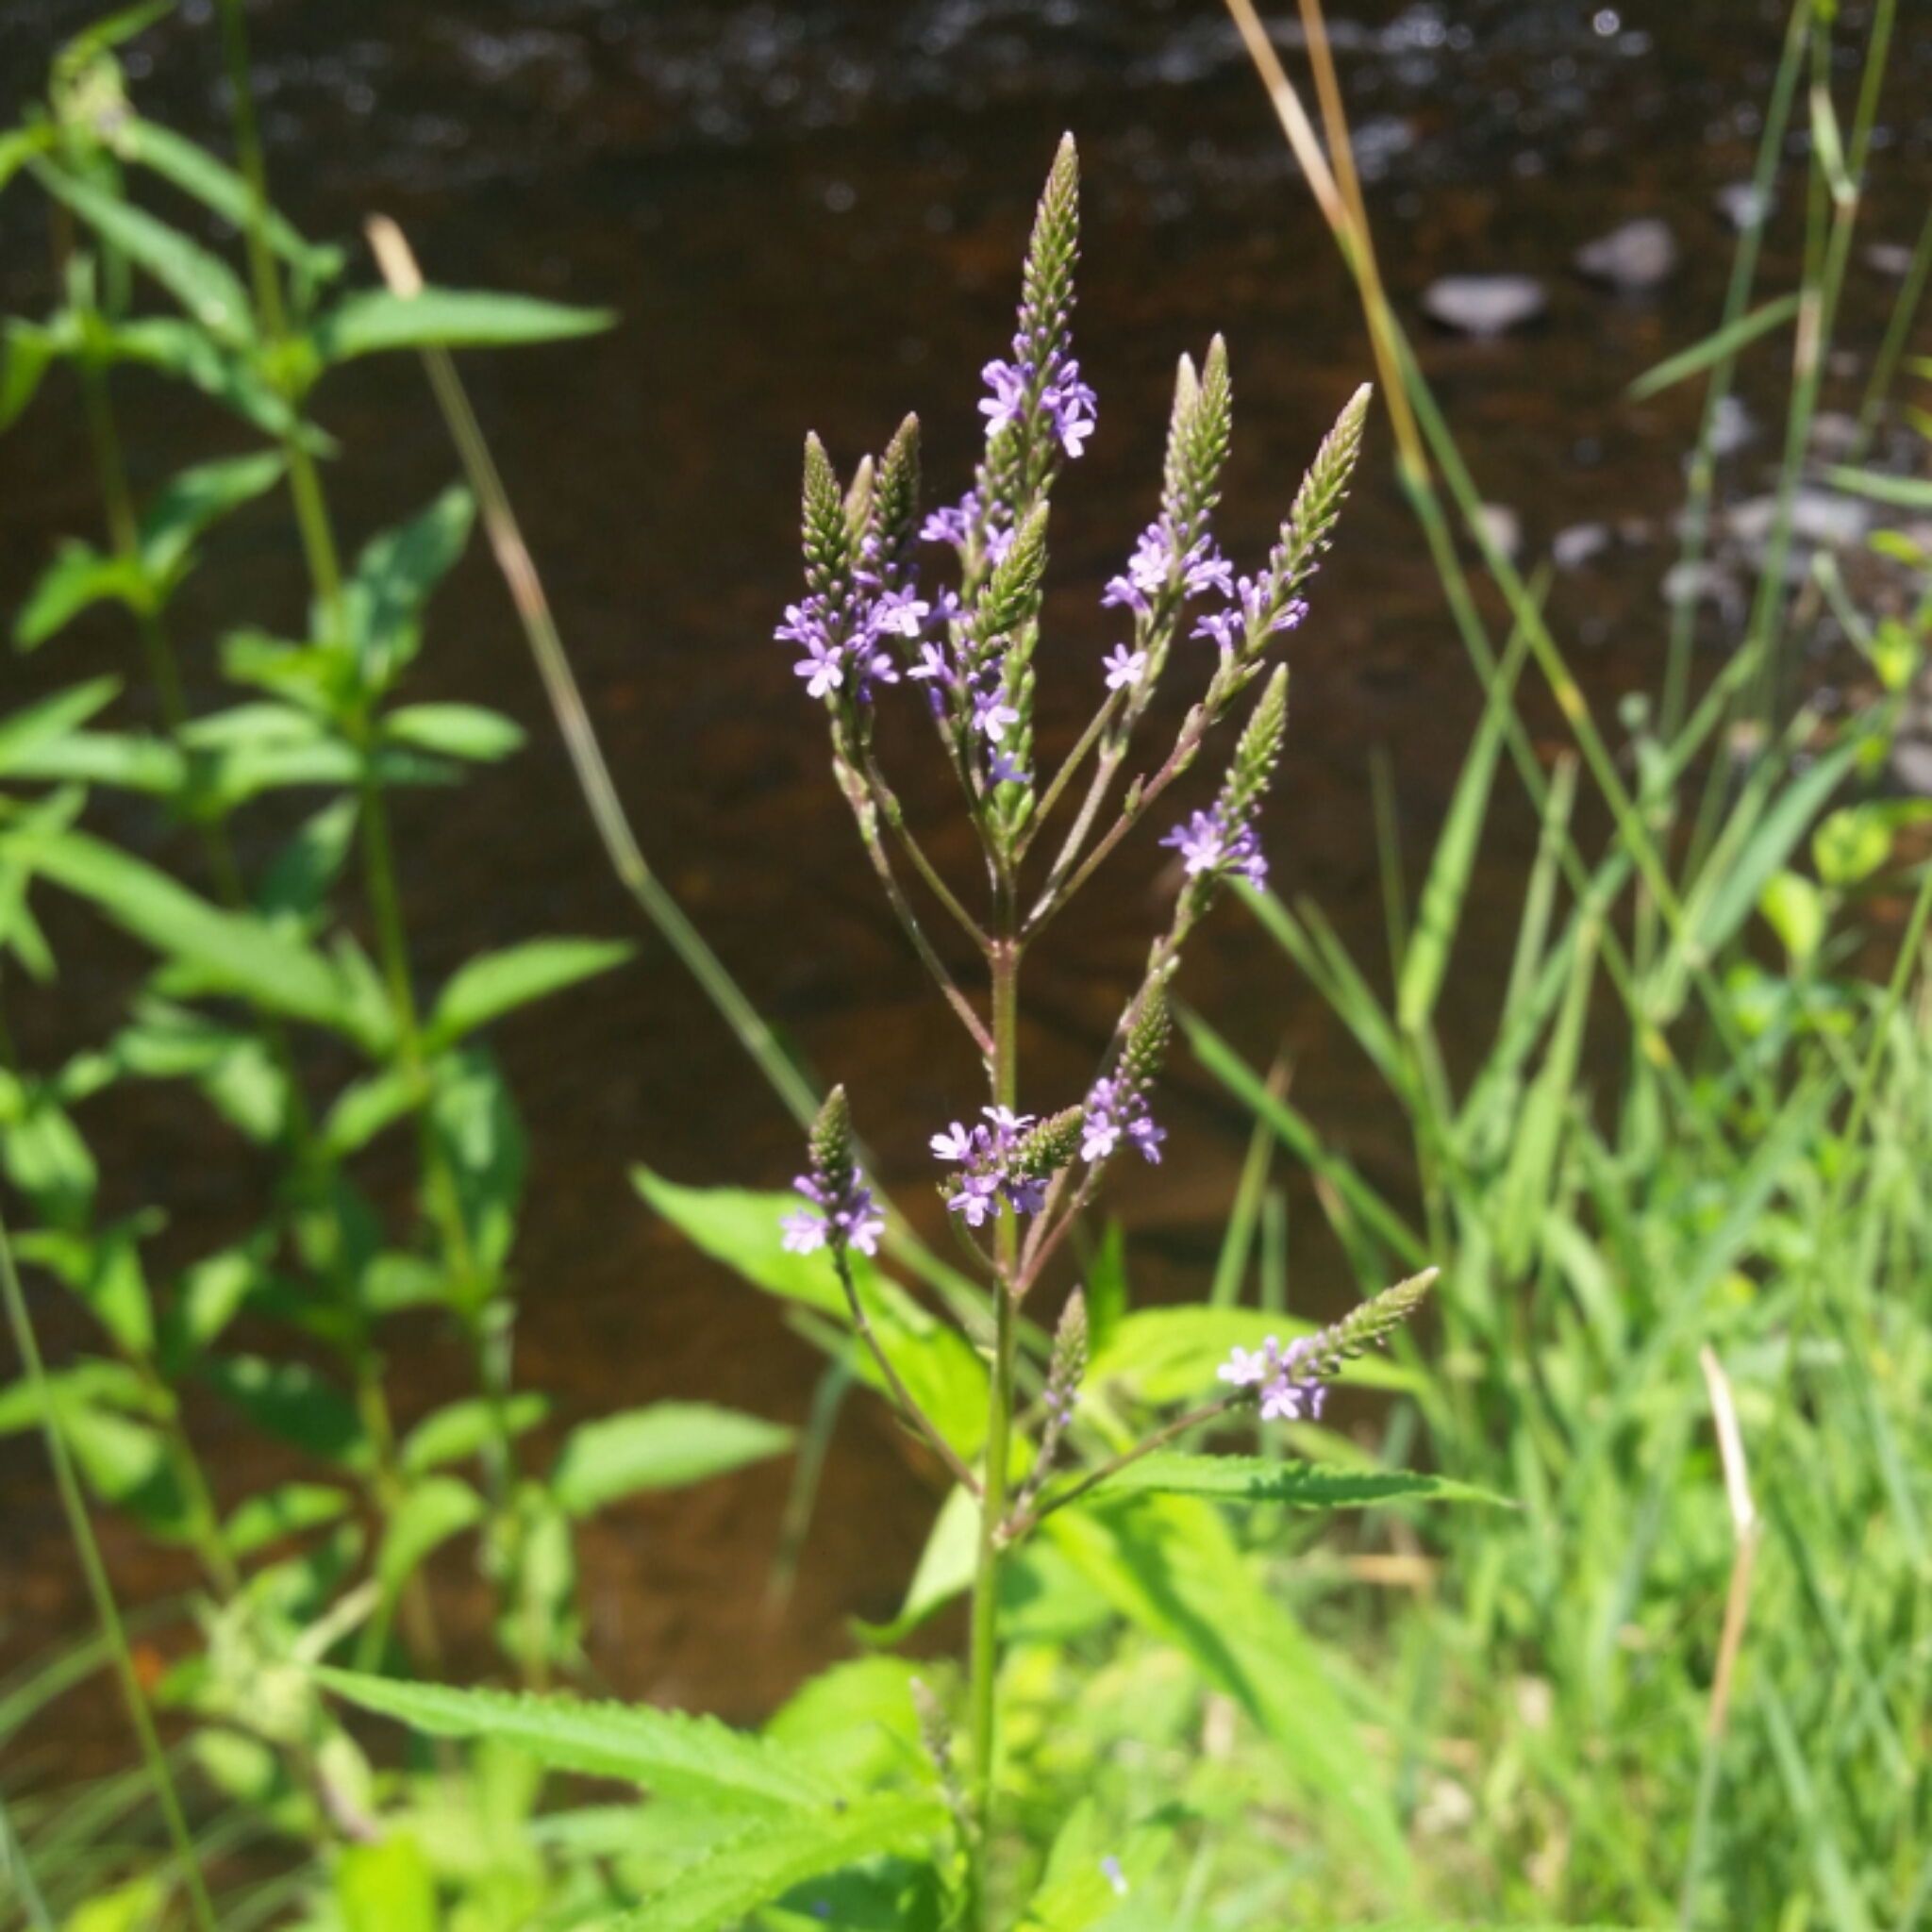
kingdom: Plantae
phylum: Tracheophyta
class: Magnoliopsida
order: Lamiales
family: Verbenaceae
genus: Verbena
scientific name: Verbena hastata
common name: American blue vervain
